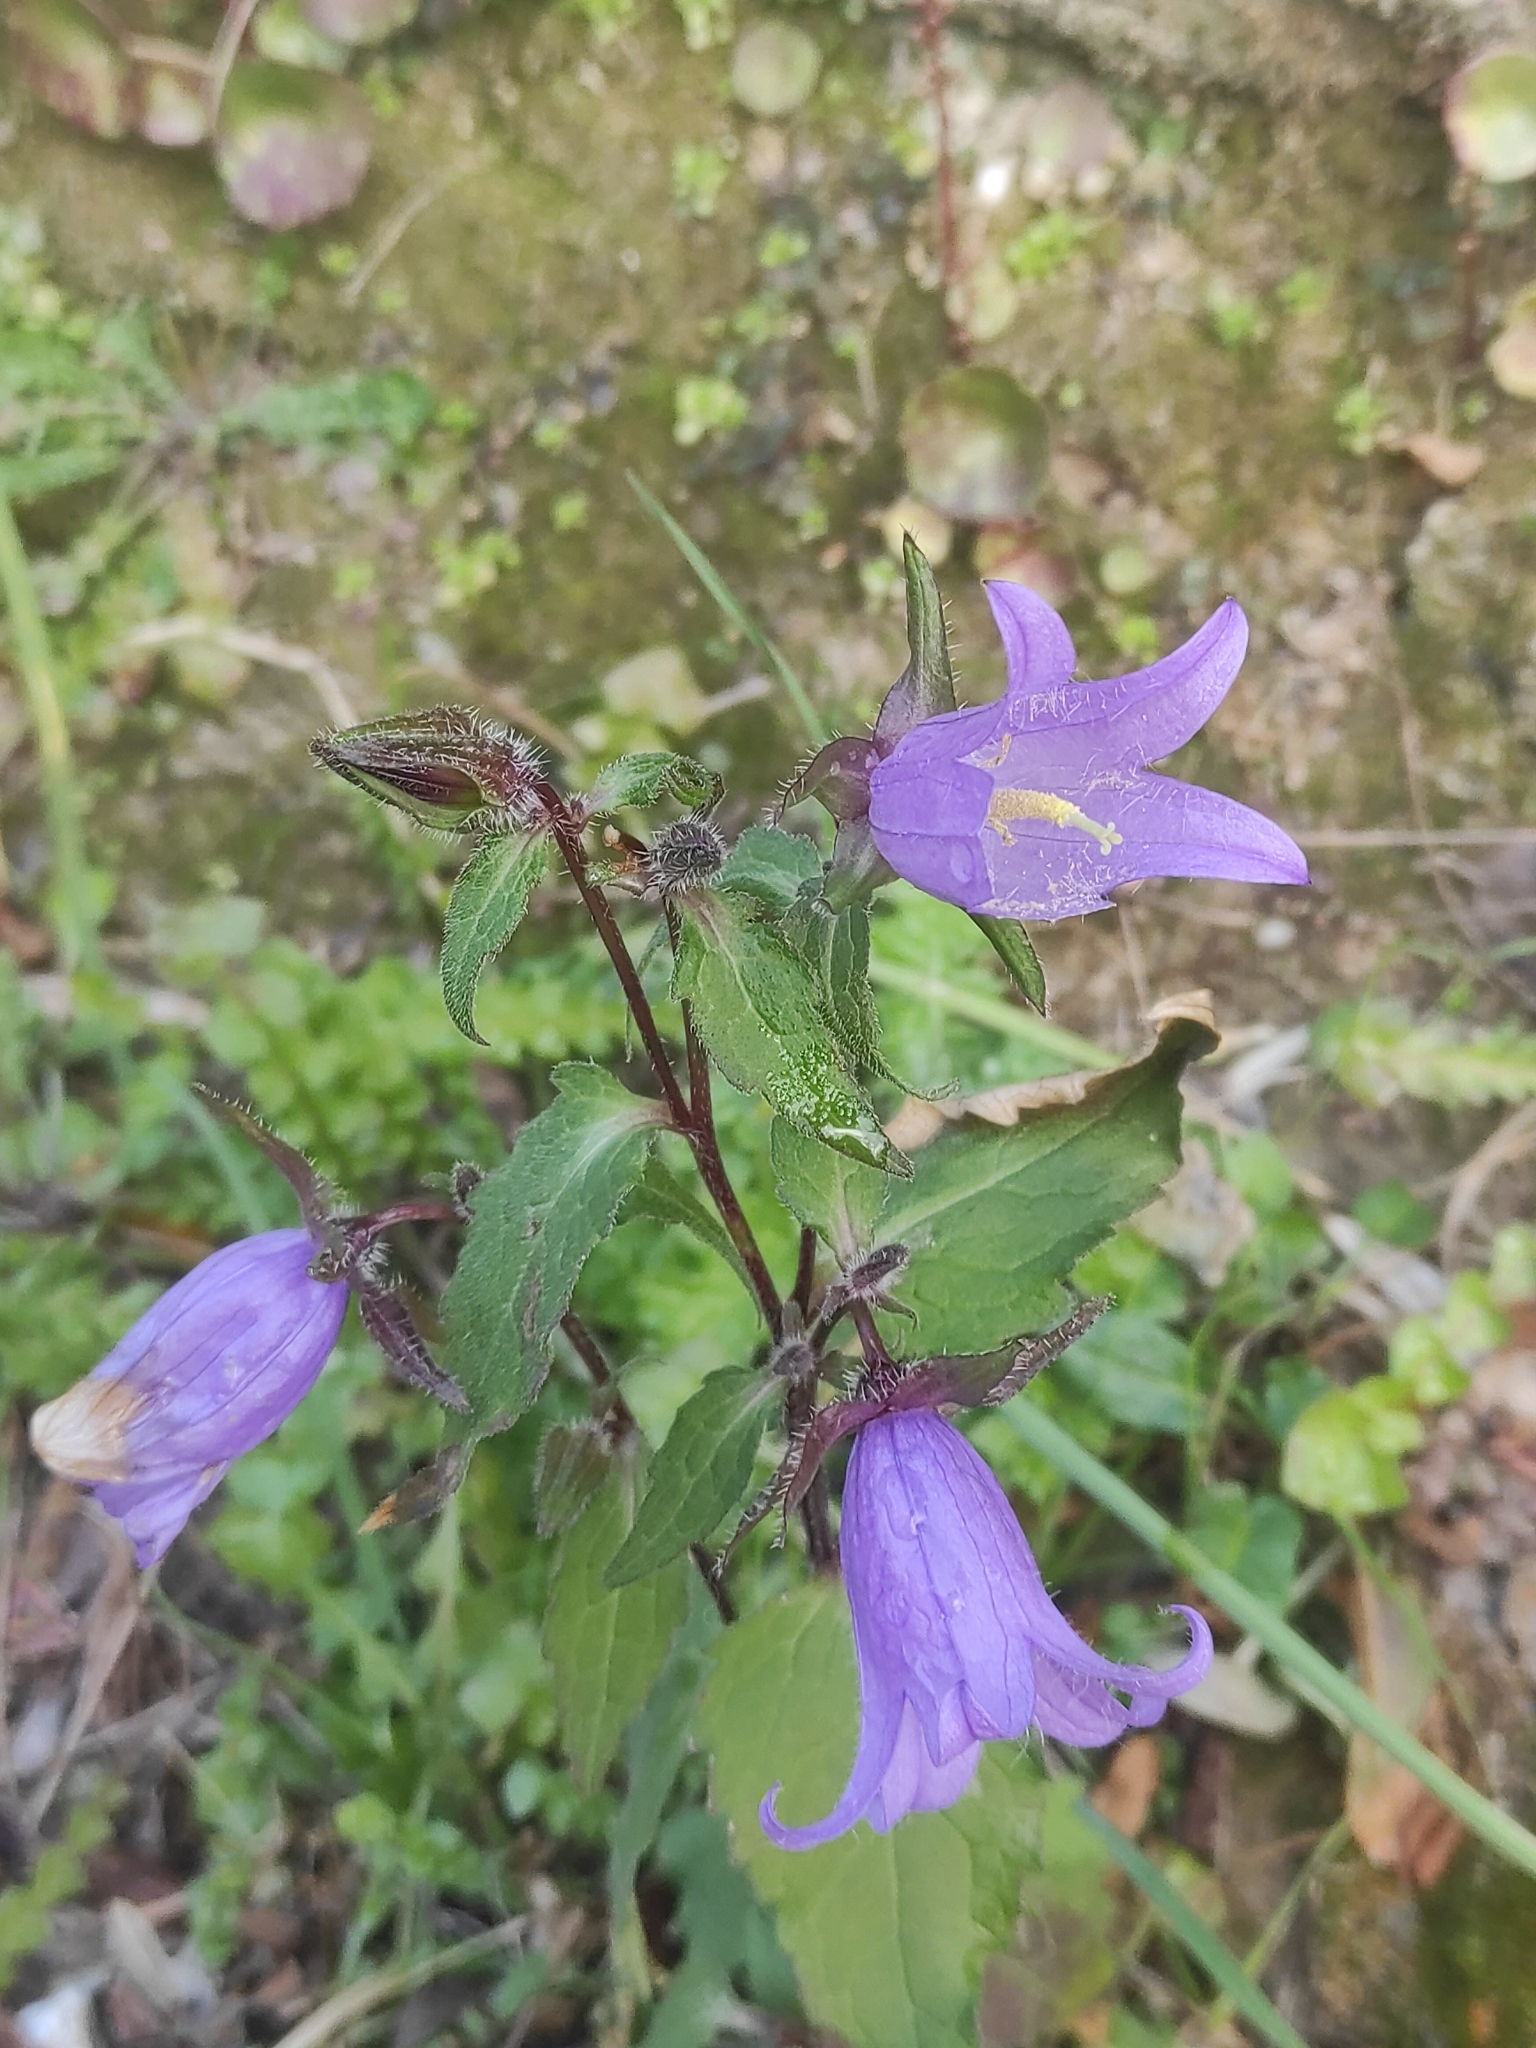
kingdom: Plantae
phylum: Tracheophyta
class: Magnoliopsida
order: Asterales
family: Campanulaceae
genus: Campanula
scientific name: Campanula trachelium
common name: Nettle-leaved bellflower
